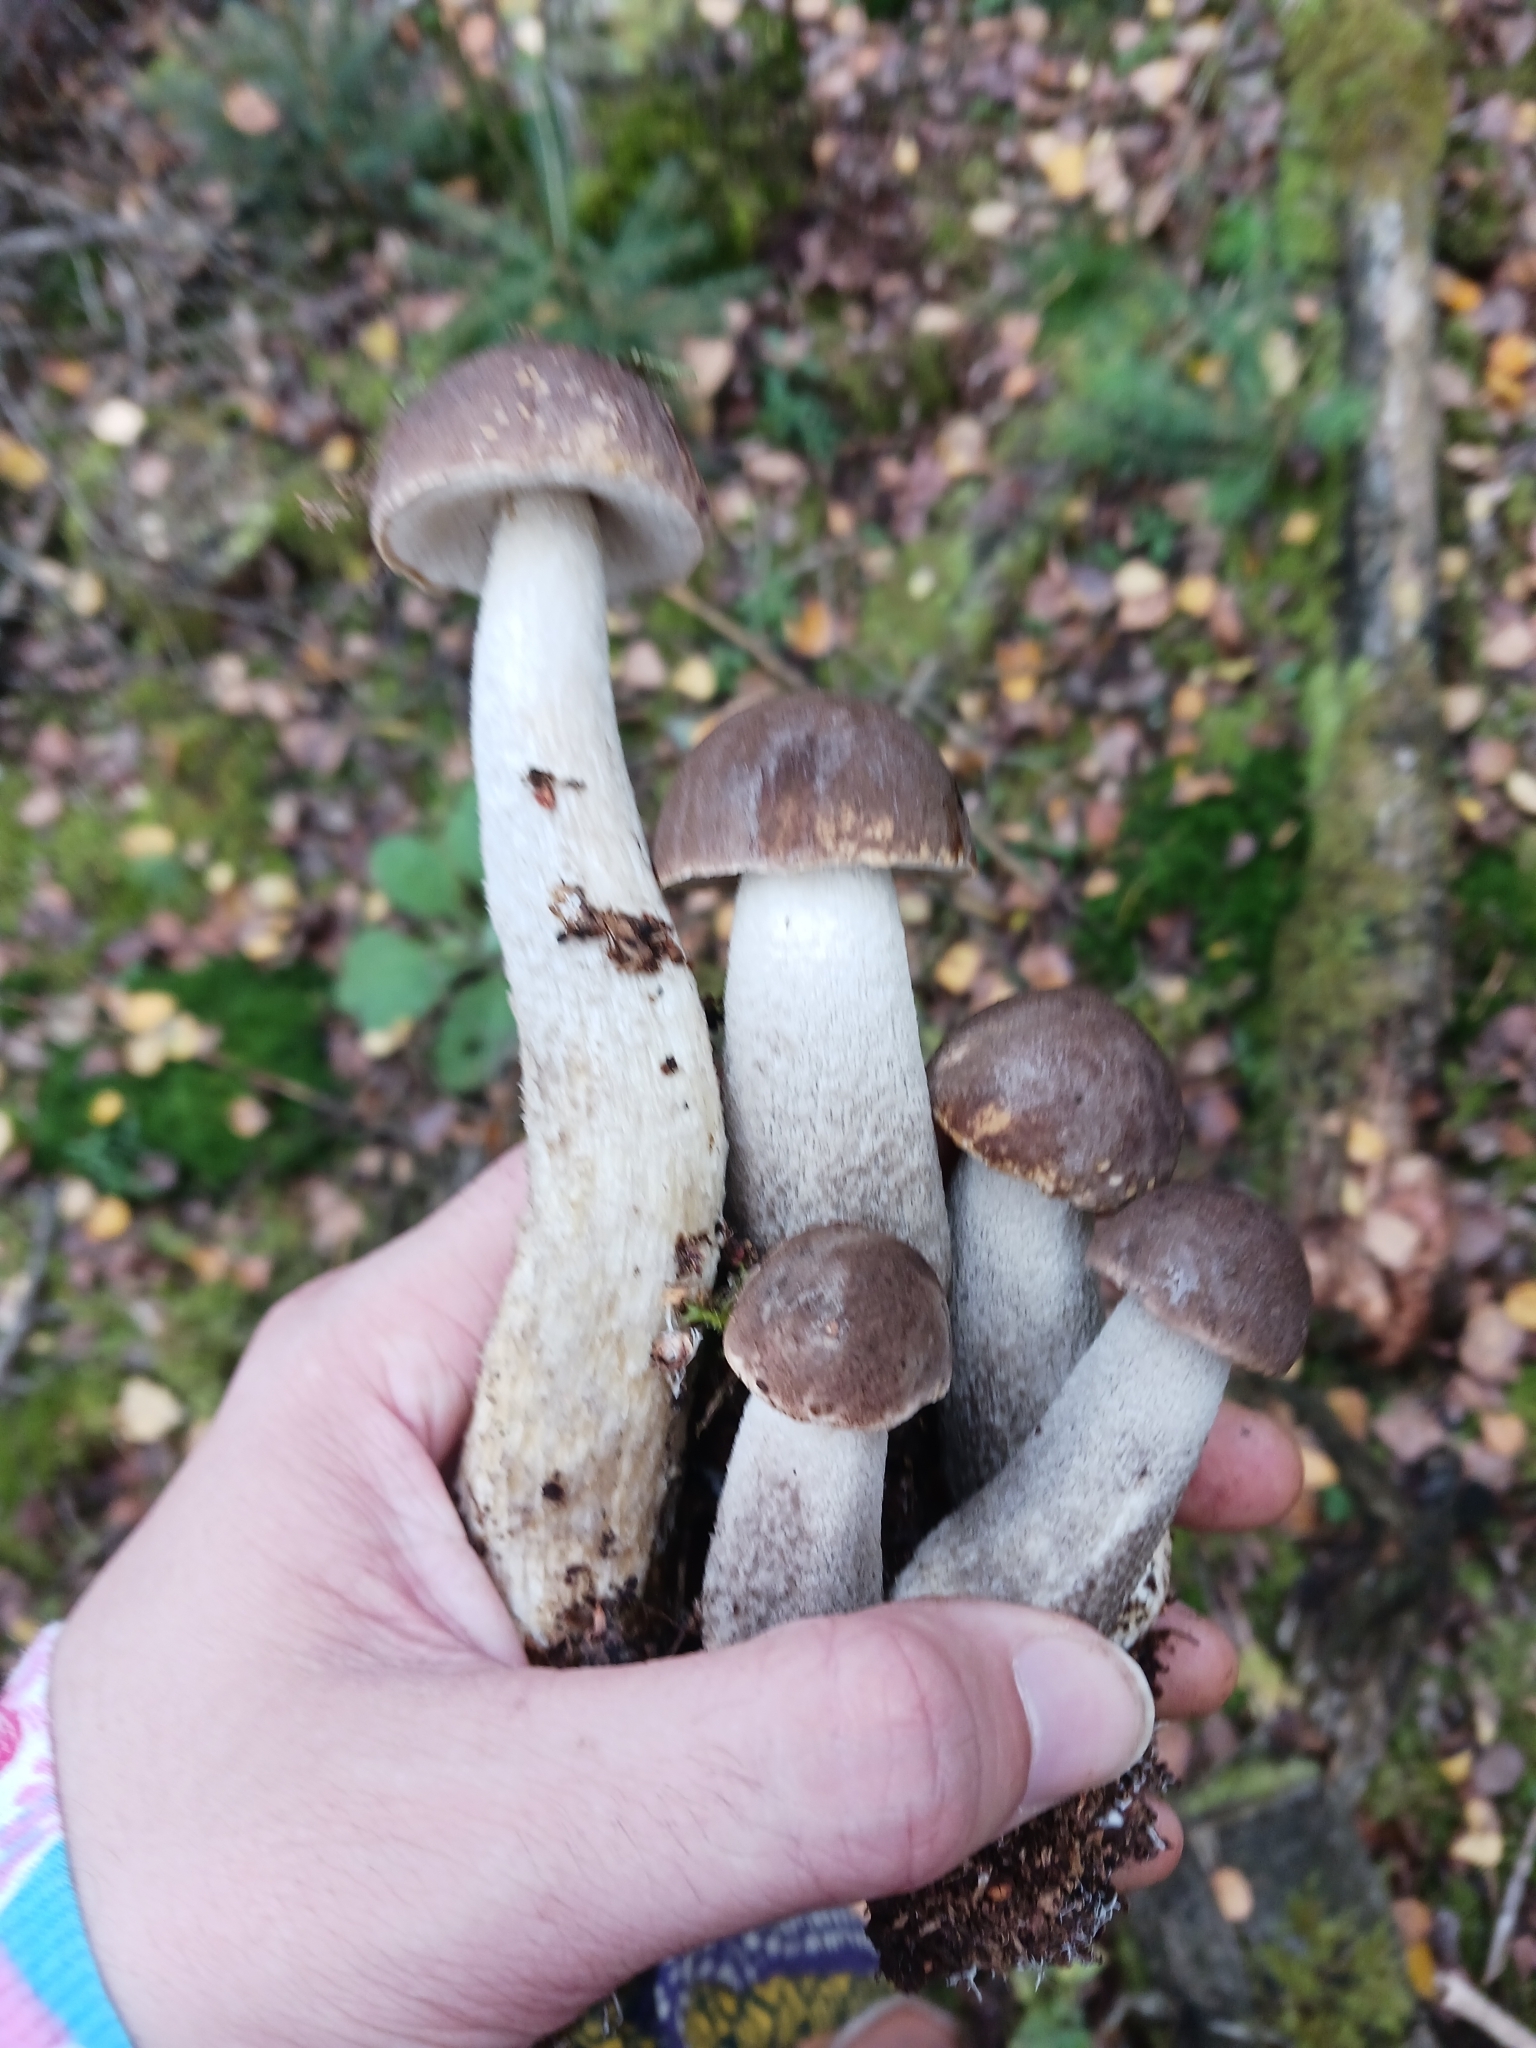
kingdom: Fungi
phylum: Basidiomycota
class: Agaricomycetes
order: Boletales
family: Boletaceae
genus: Leccinum
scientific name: Leccinum cyaneobasileucum
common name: Greyshank bolete
